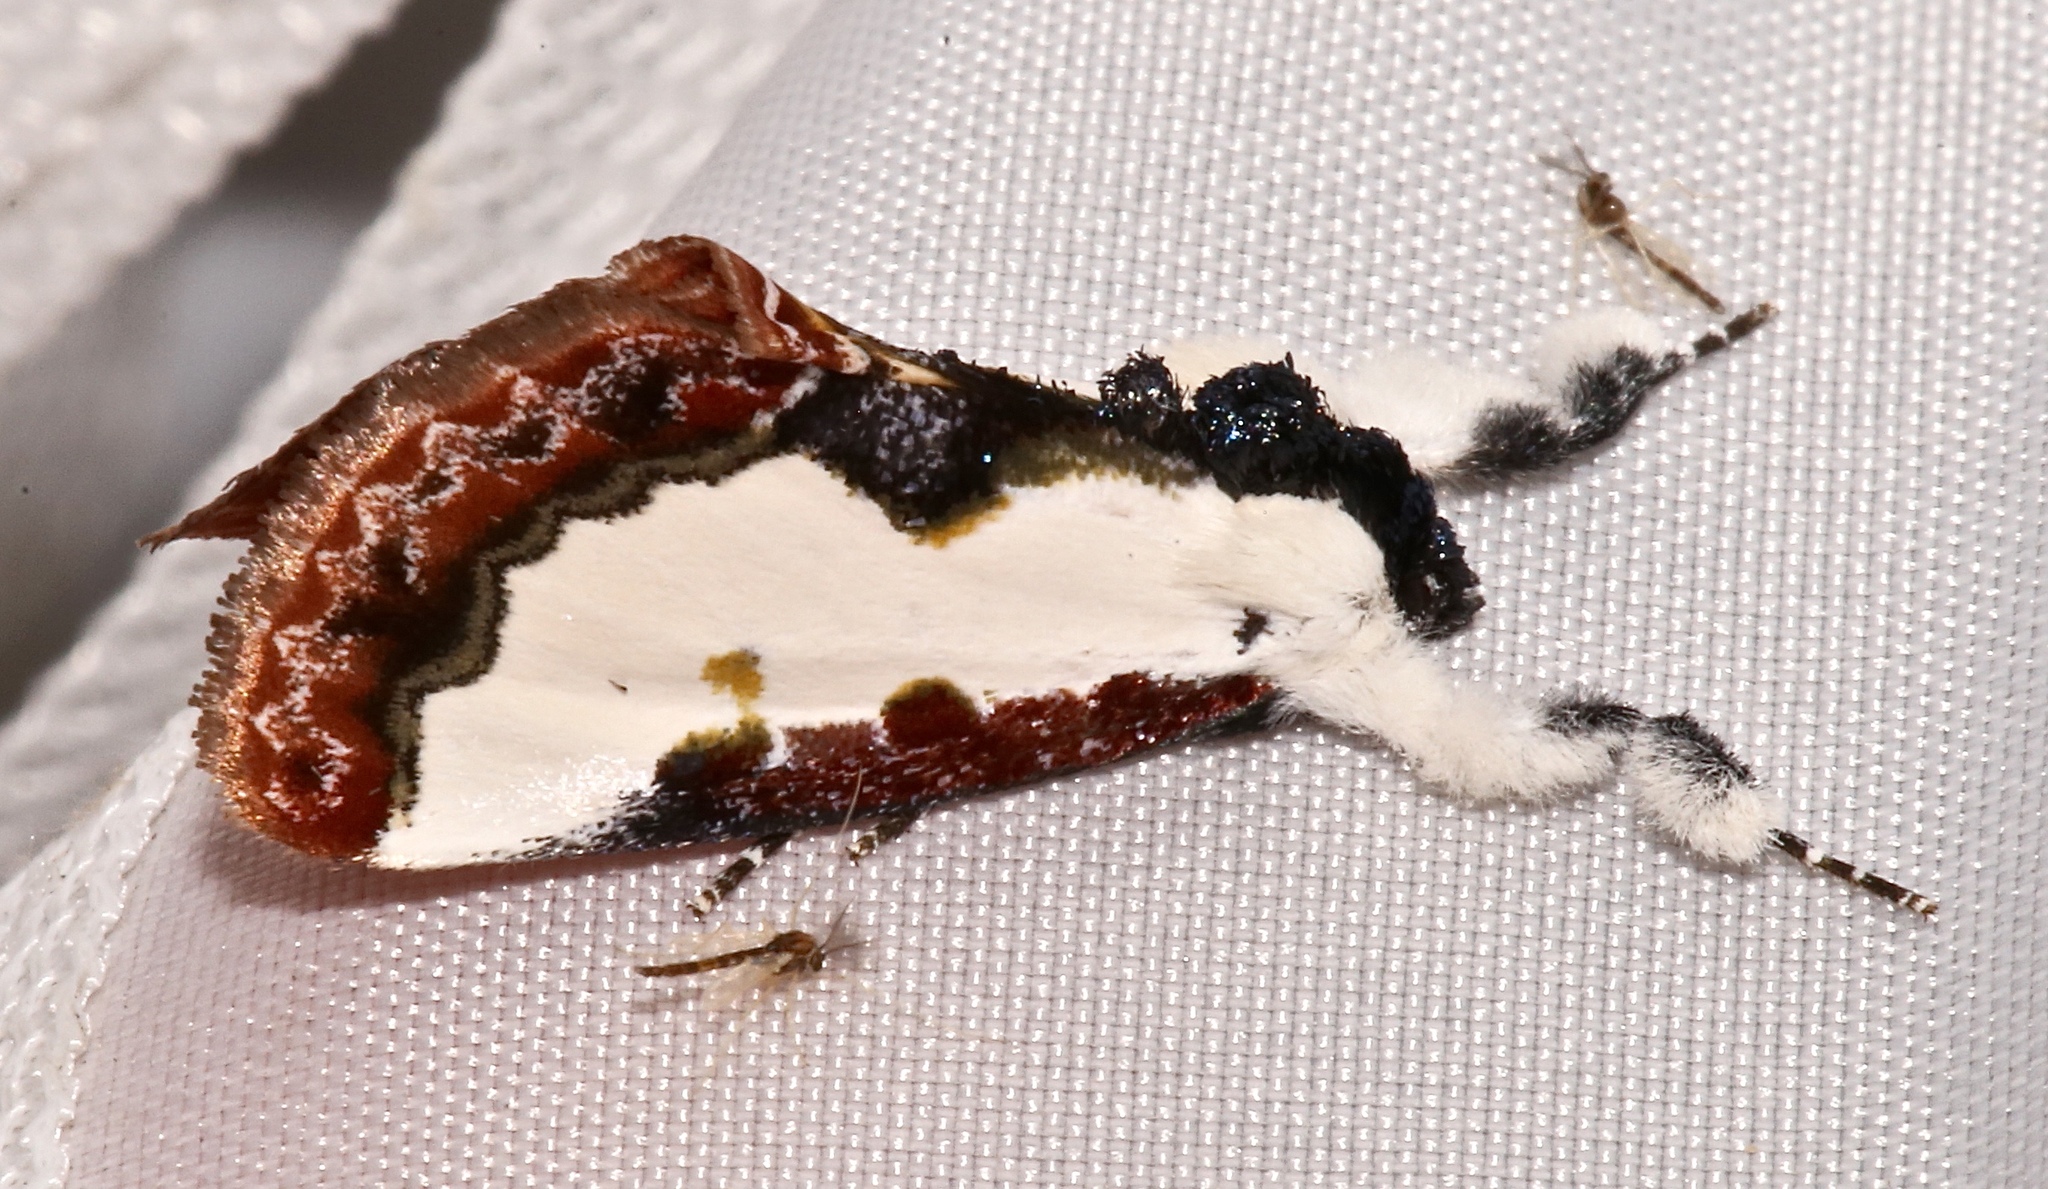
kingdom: Animalia
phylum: Arthropoda
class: Insecta
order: Lepidoptera
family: Noctuidae
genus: Eudryas
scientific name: Eudryas unio
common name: Pearly wood-nymph
